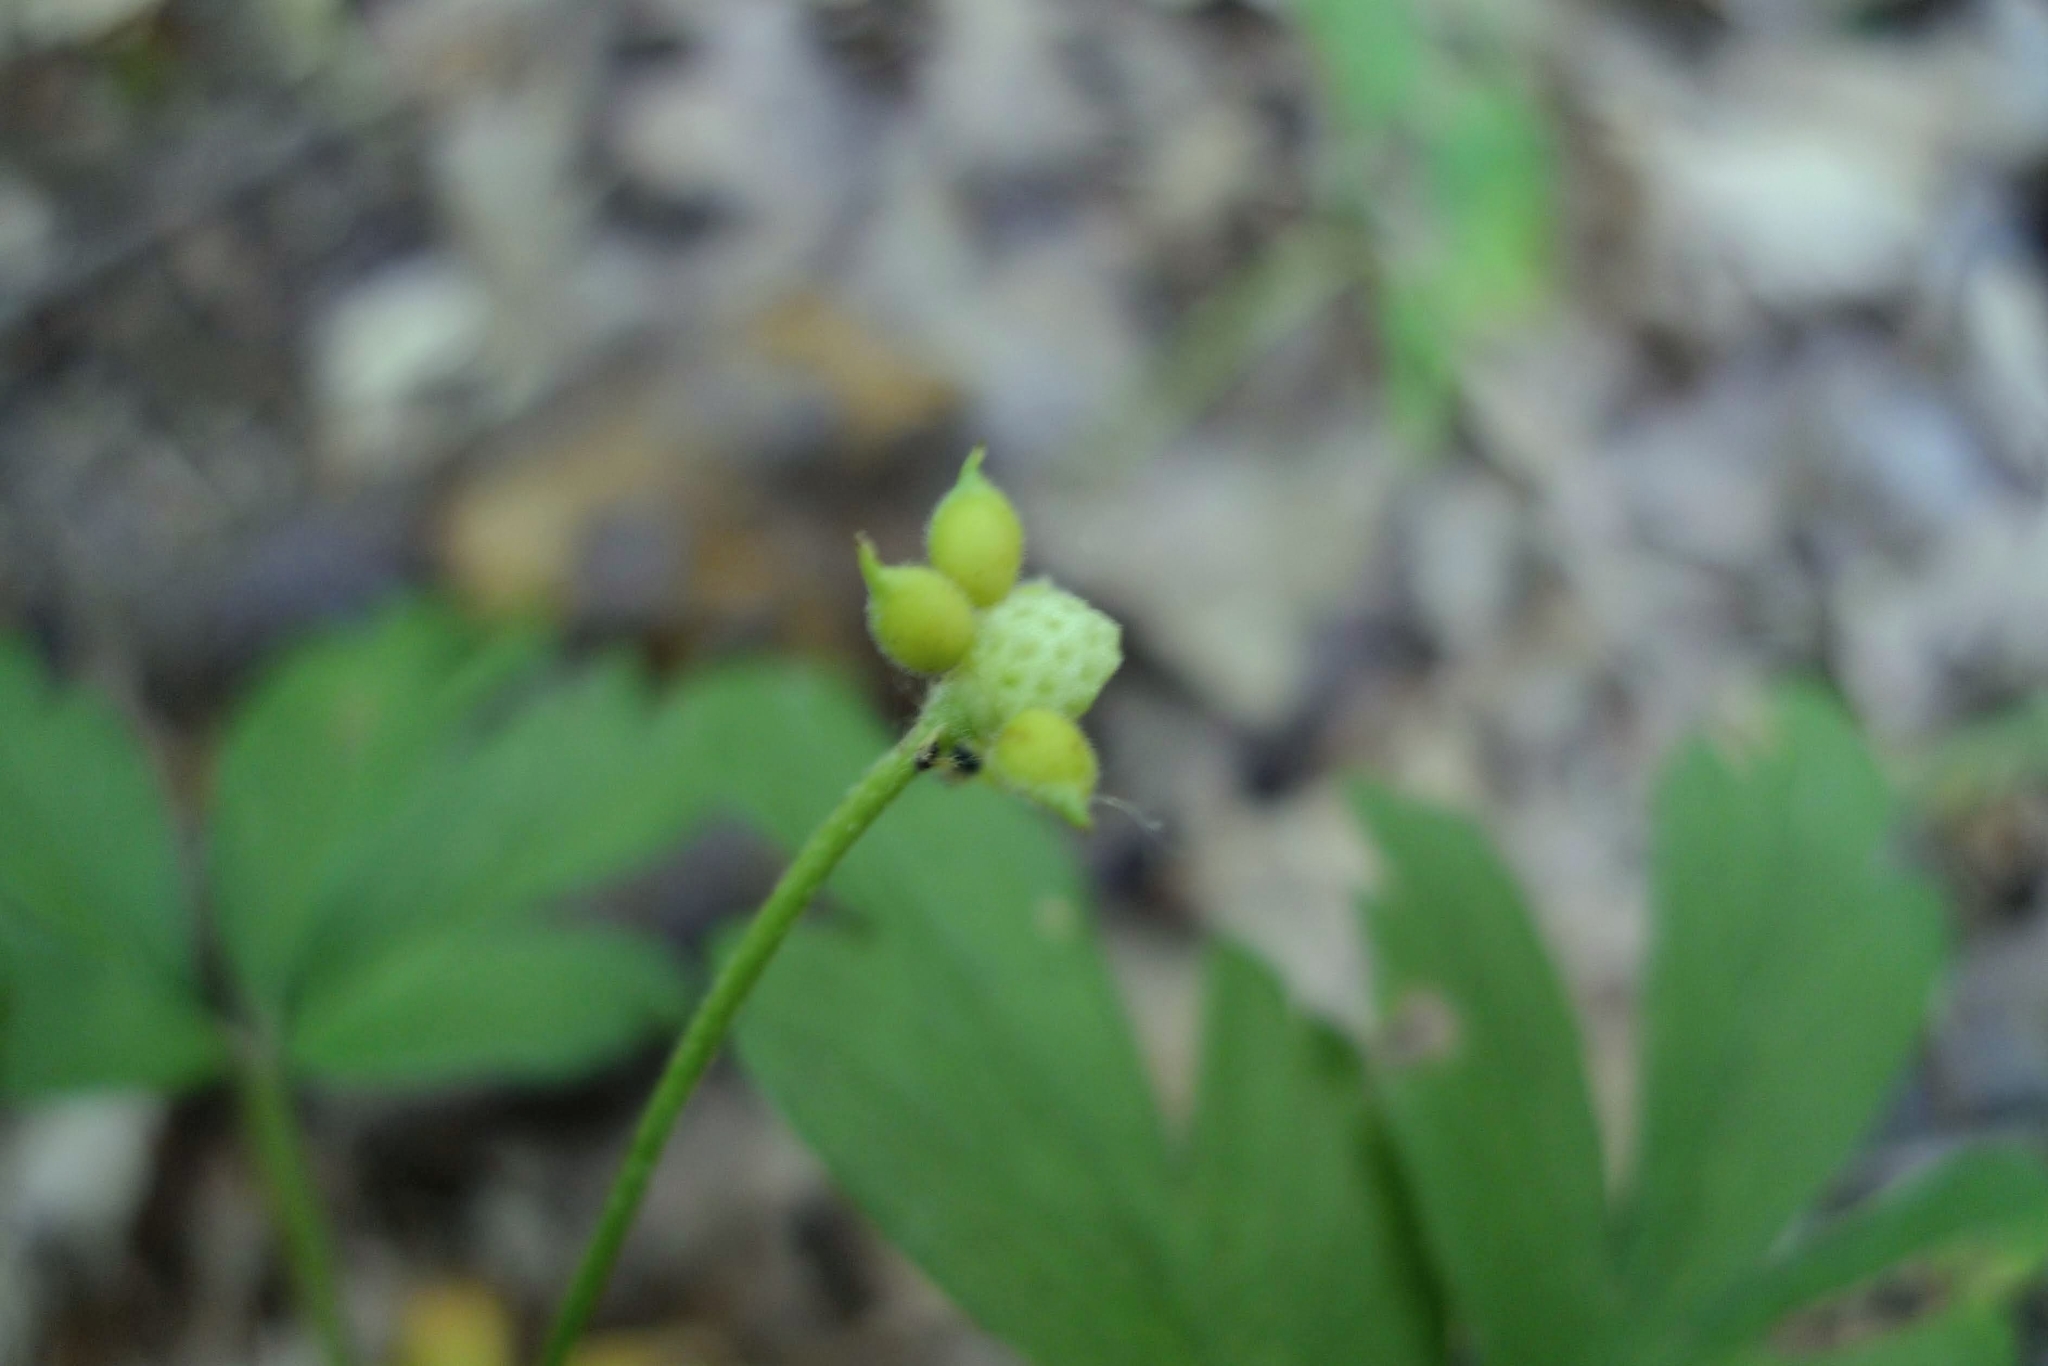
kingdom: Plantae
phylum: Tracheophyta
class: Magnoliopsida
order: Ranunculales
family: Ranunculaceae
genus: Anemone
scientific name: Anemone nemorosa
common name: Wood anemone
